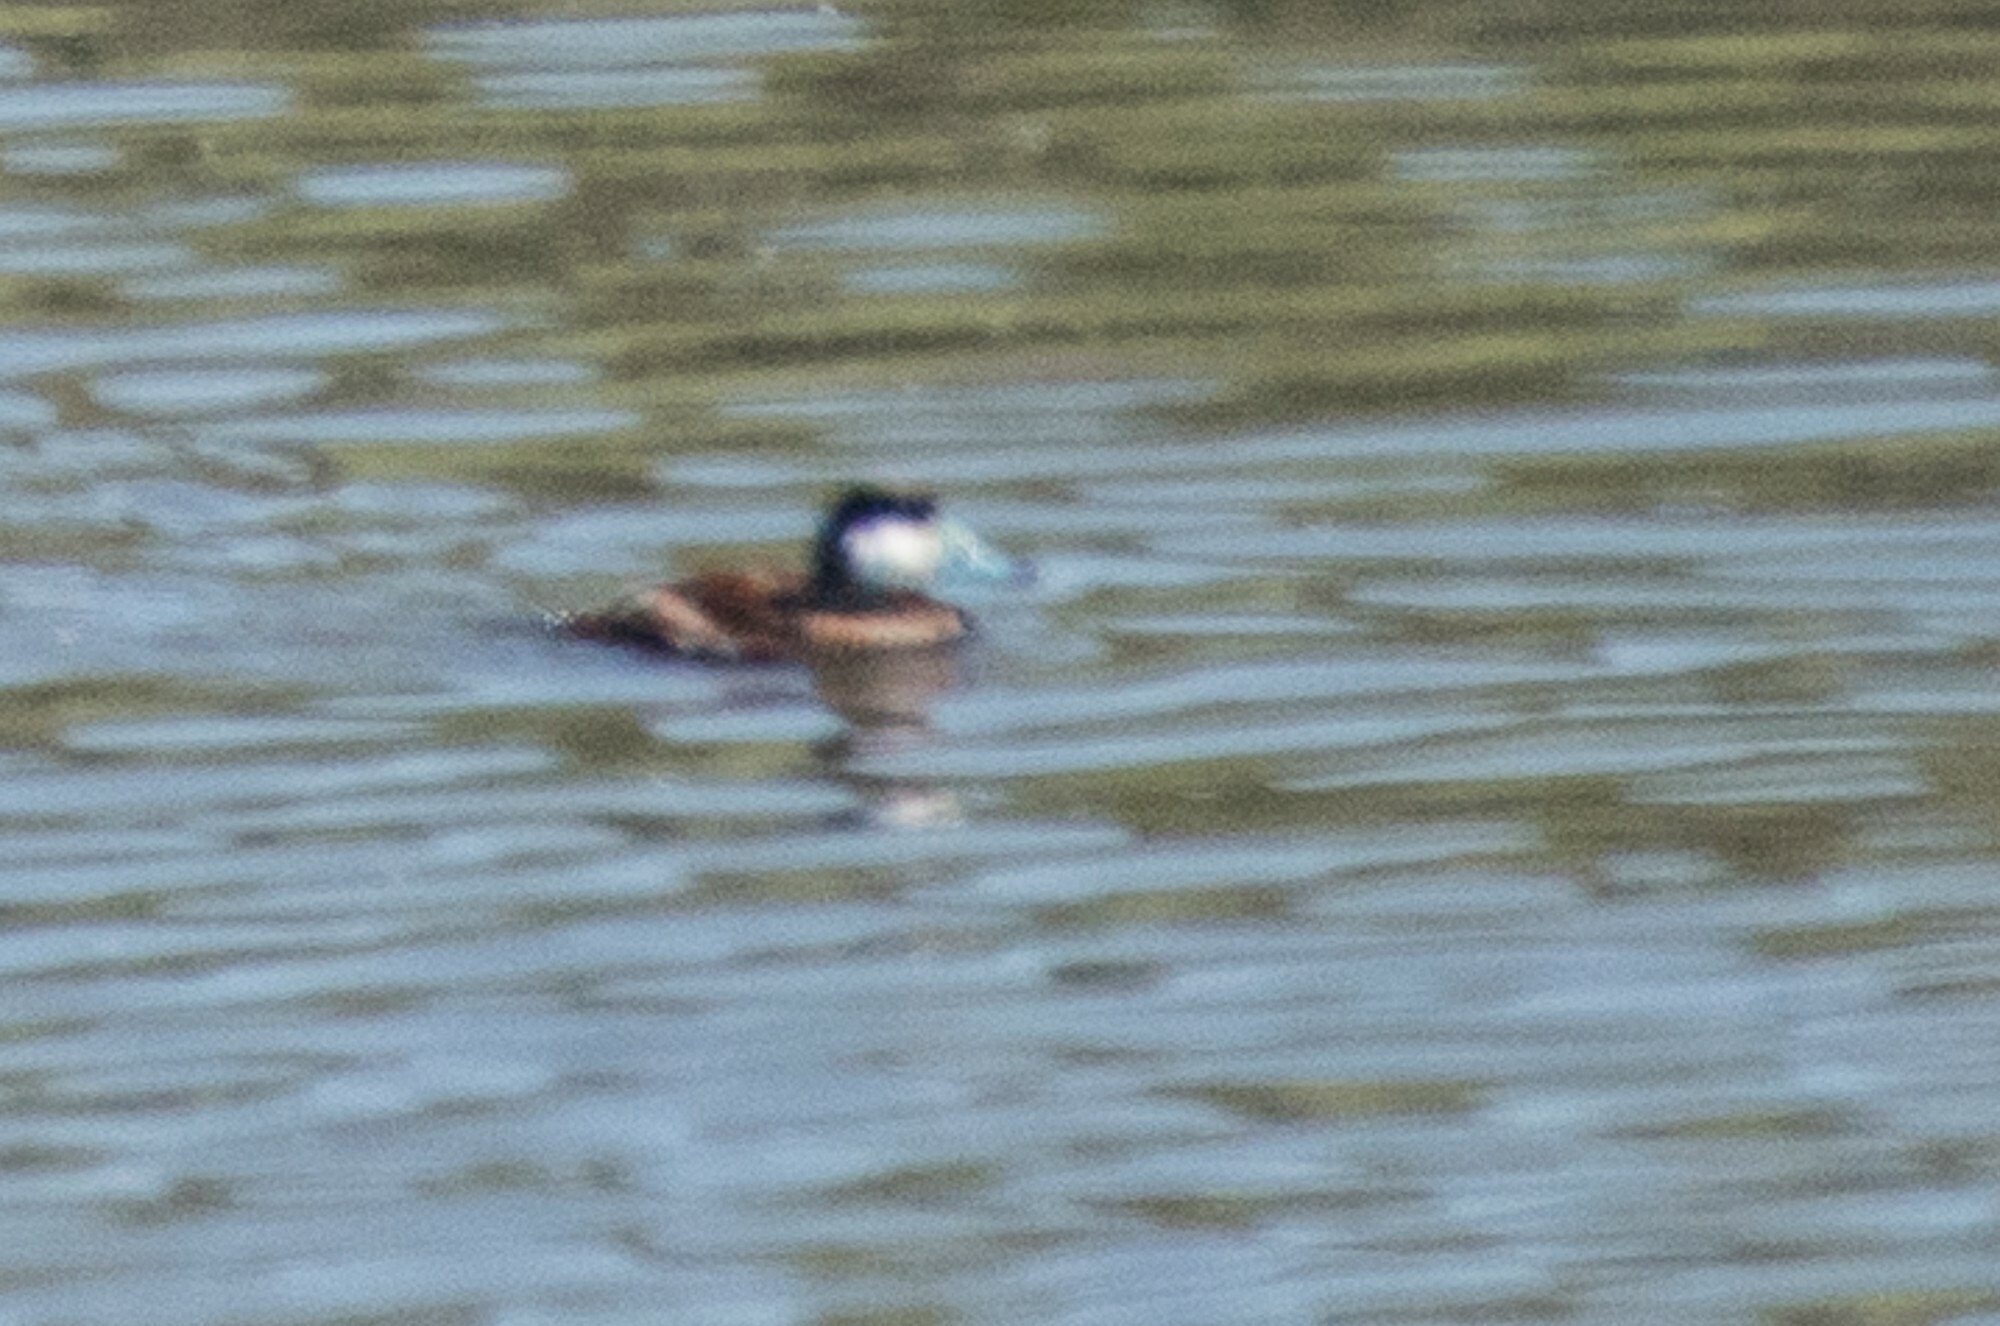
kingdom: Animalia
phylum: Chordata
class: Aves
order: Anseriformes
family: Anatidae
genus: Oxyura
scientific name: Oxyura jamaicensis
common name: Ruddy duck
